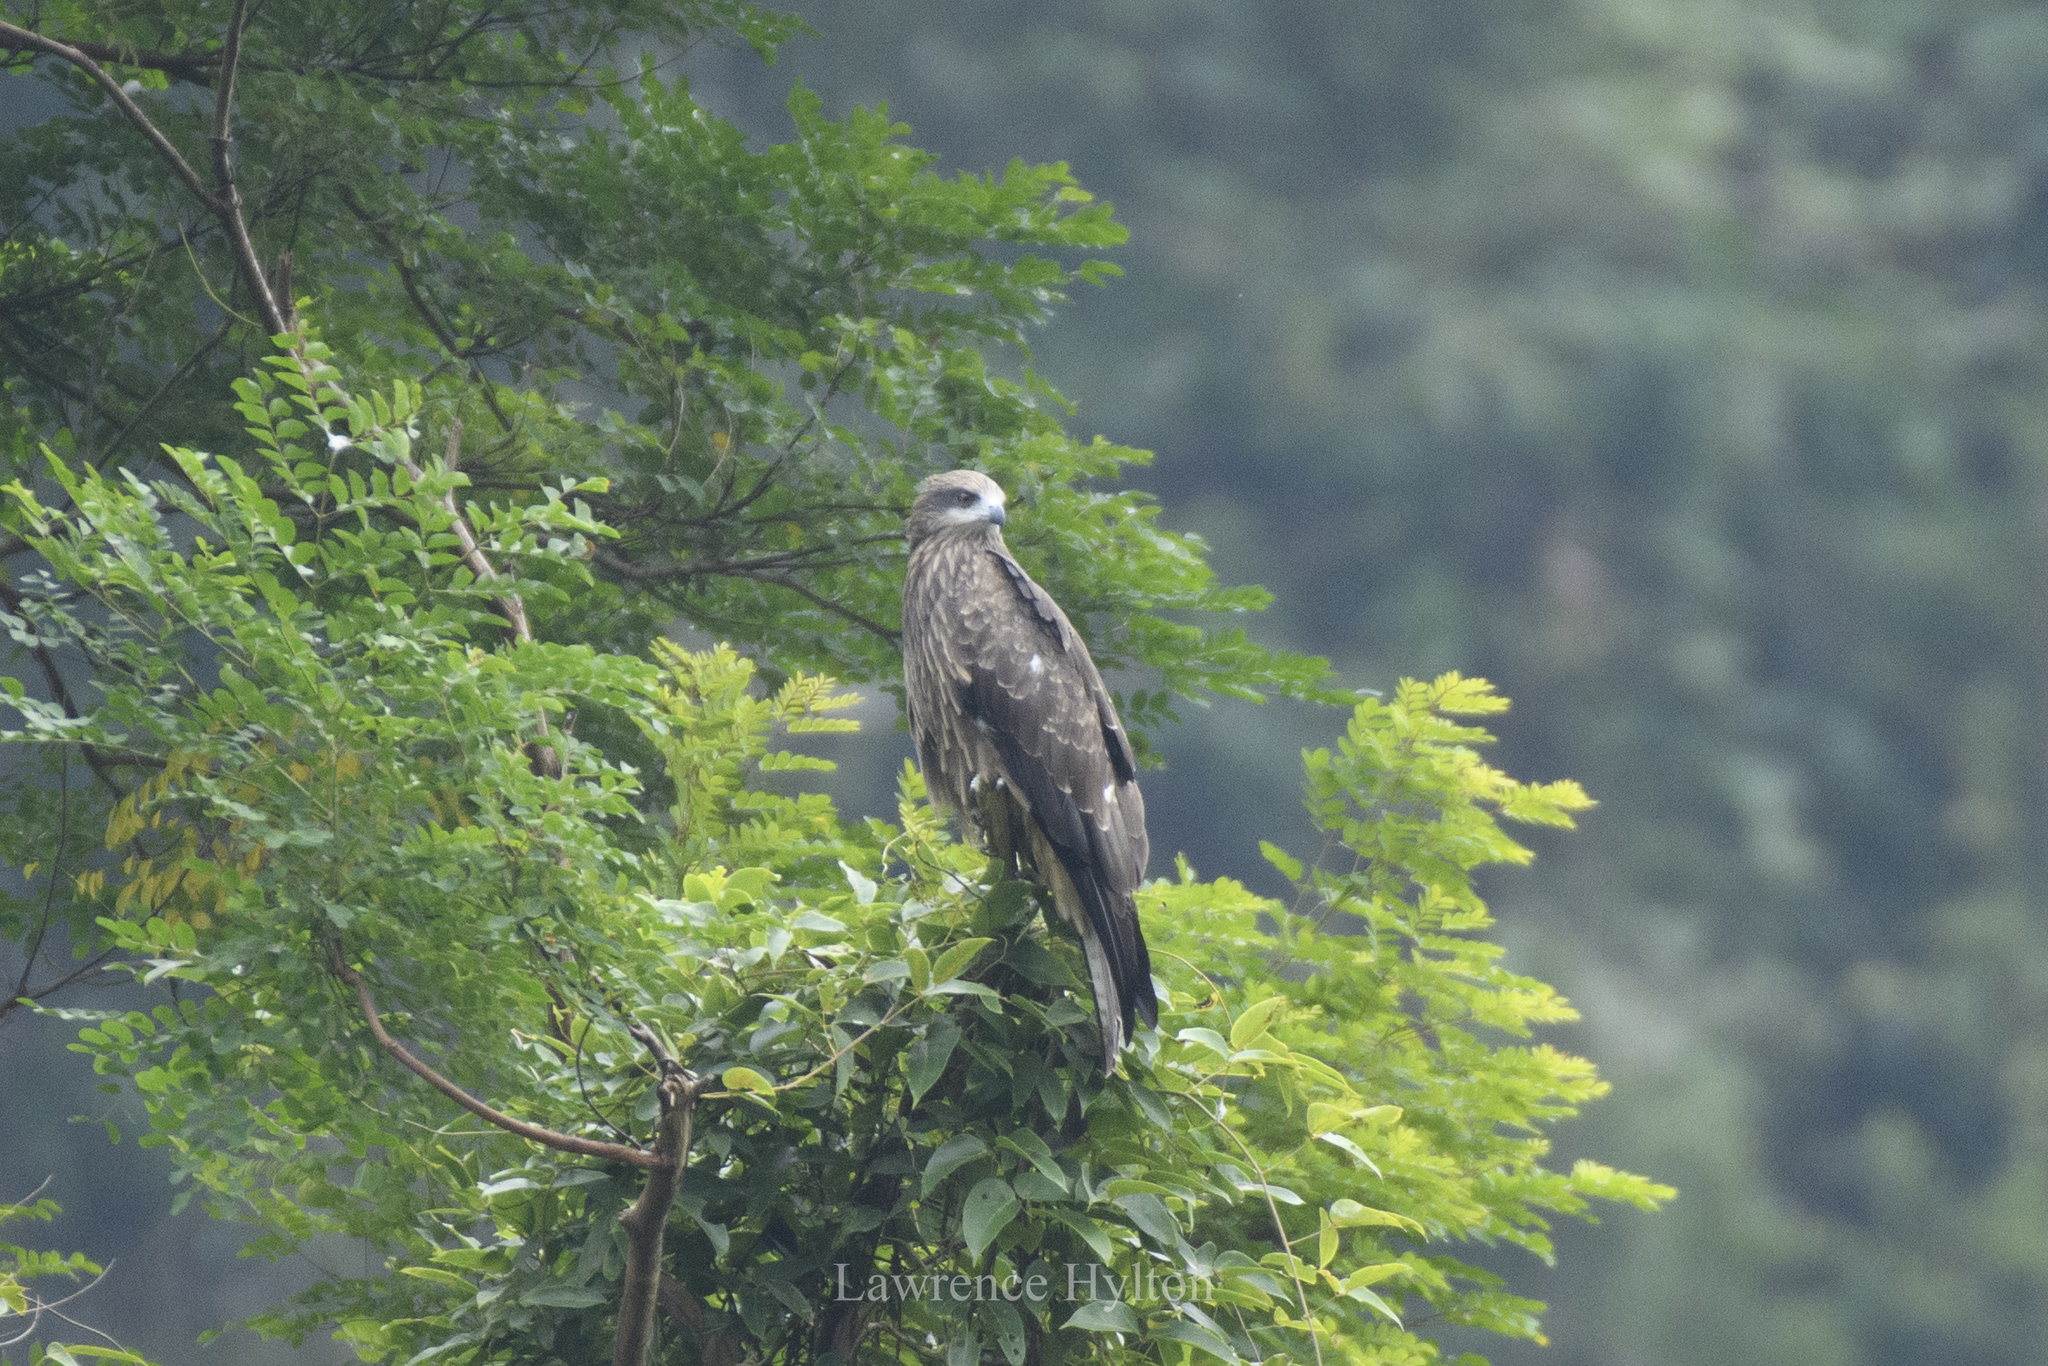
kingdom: Animalia
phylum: Chordata
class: Aves
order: Accipitriformes
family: Accipitridae
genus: Milvus
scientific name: Milvus migrans
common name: Black kite
